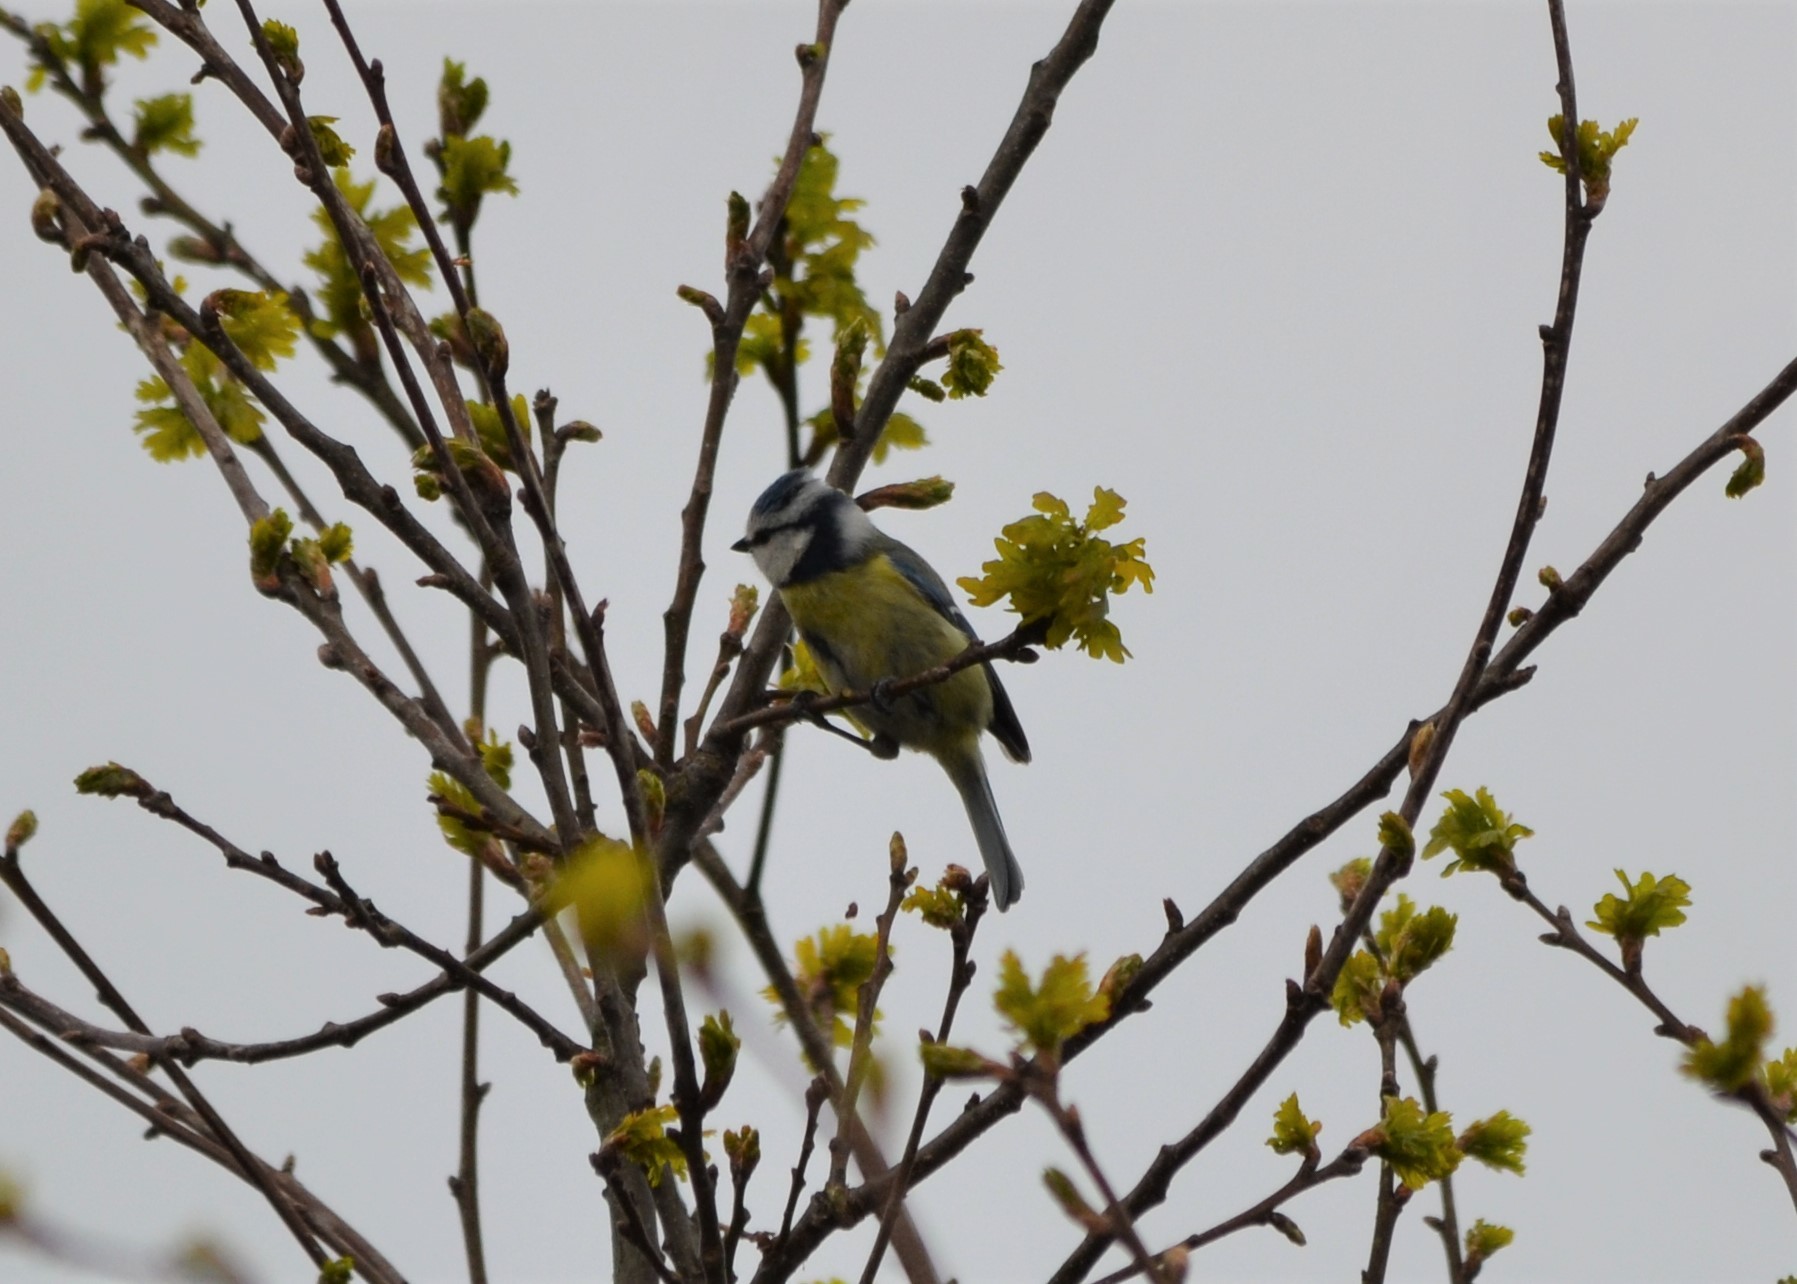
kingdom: Animalia
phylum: Chordata
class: Aves
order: Passeriformes
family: Paridae
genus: Cyanistes
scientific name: Cyanistes caeruleus
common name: Eurasian blue tit
